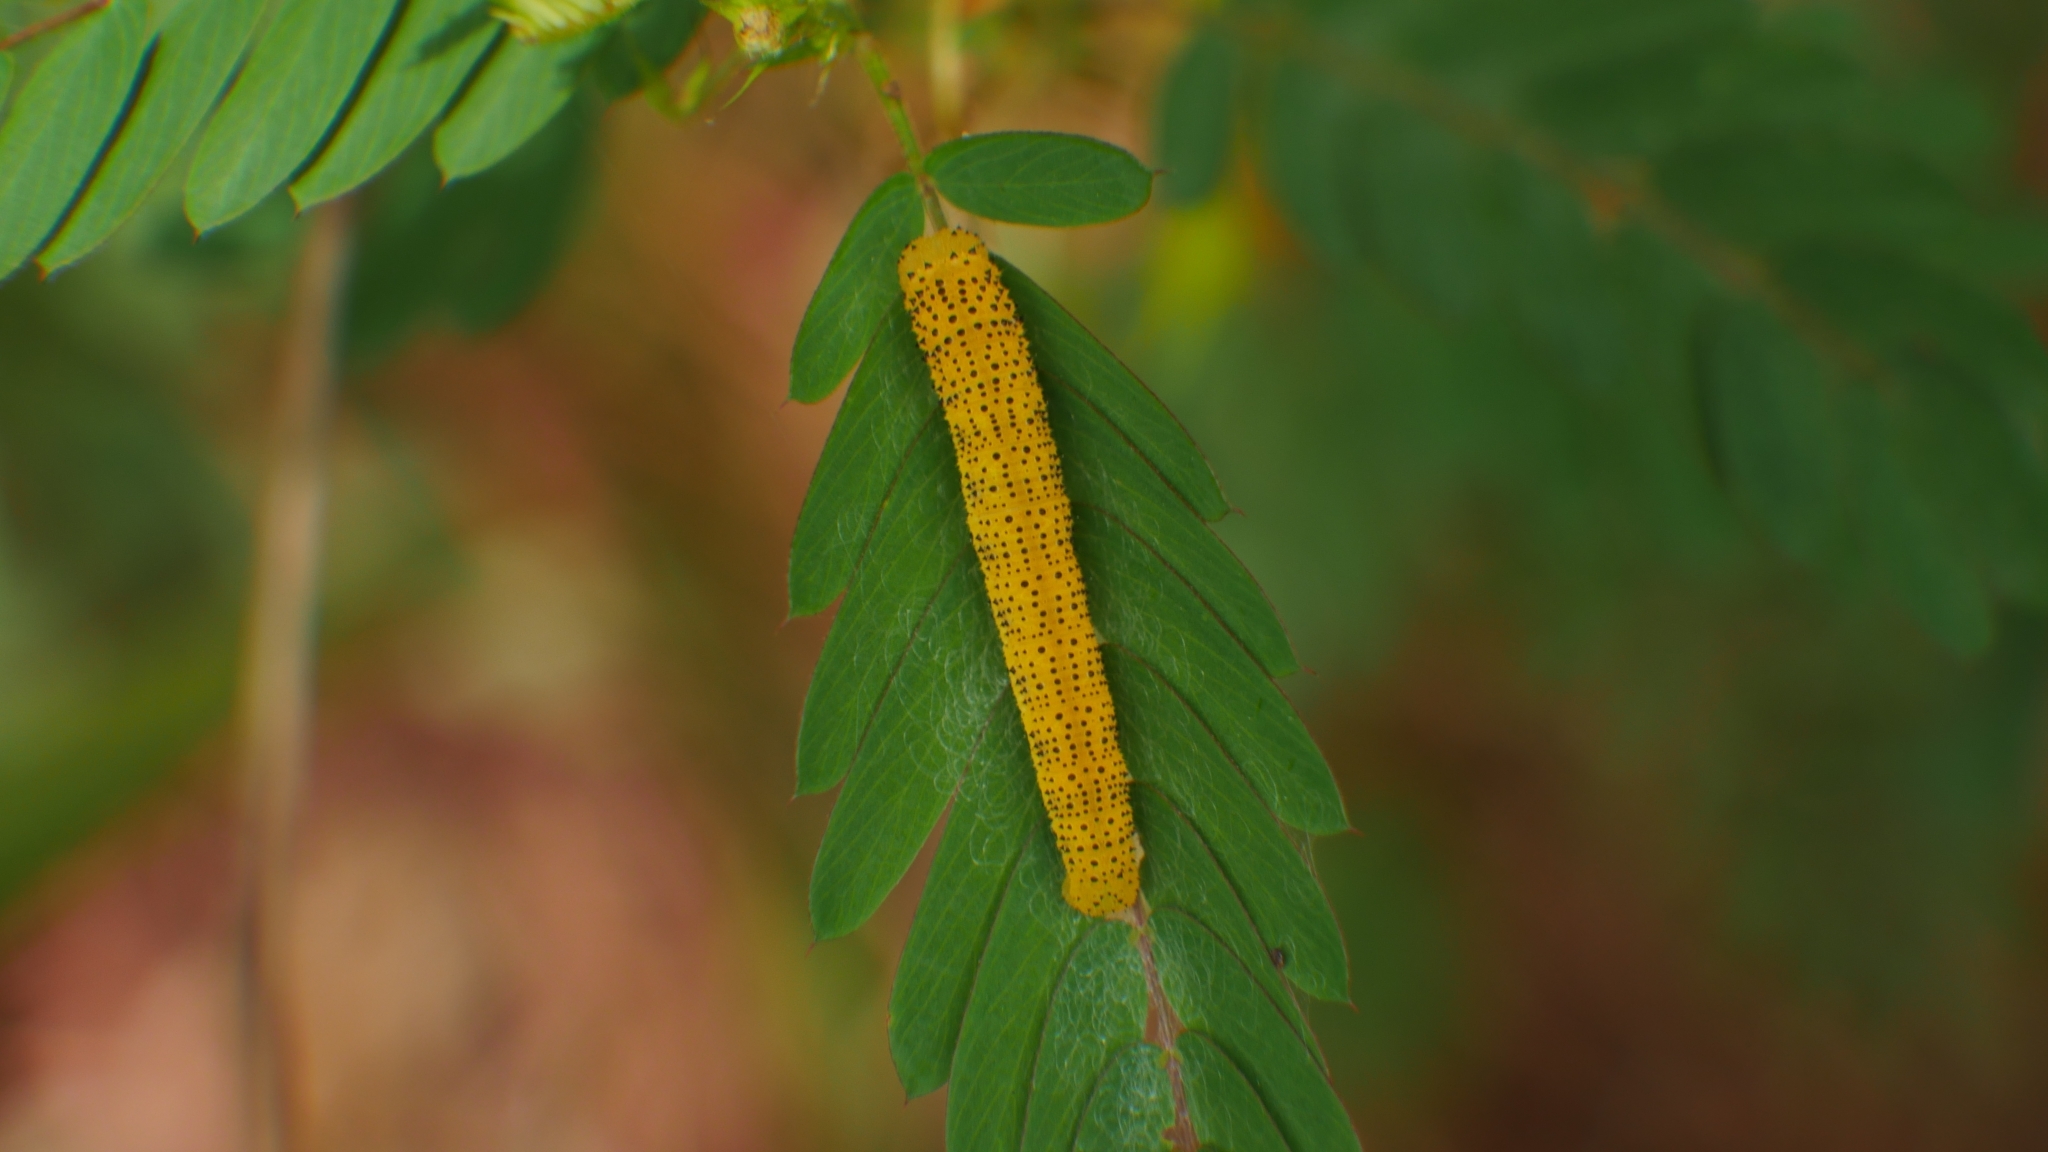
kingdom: Animalia
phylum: Arthropoda
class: Insecta
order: Lepidoptera
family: Pieridae
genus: Phoebis
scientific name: Phoebis sennae
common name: Cloudless sulphur
